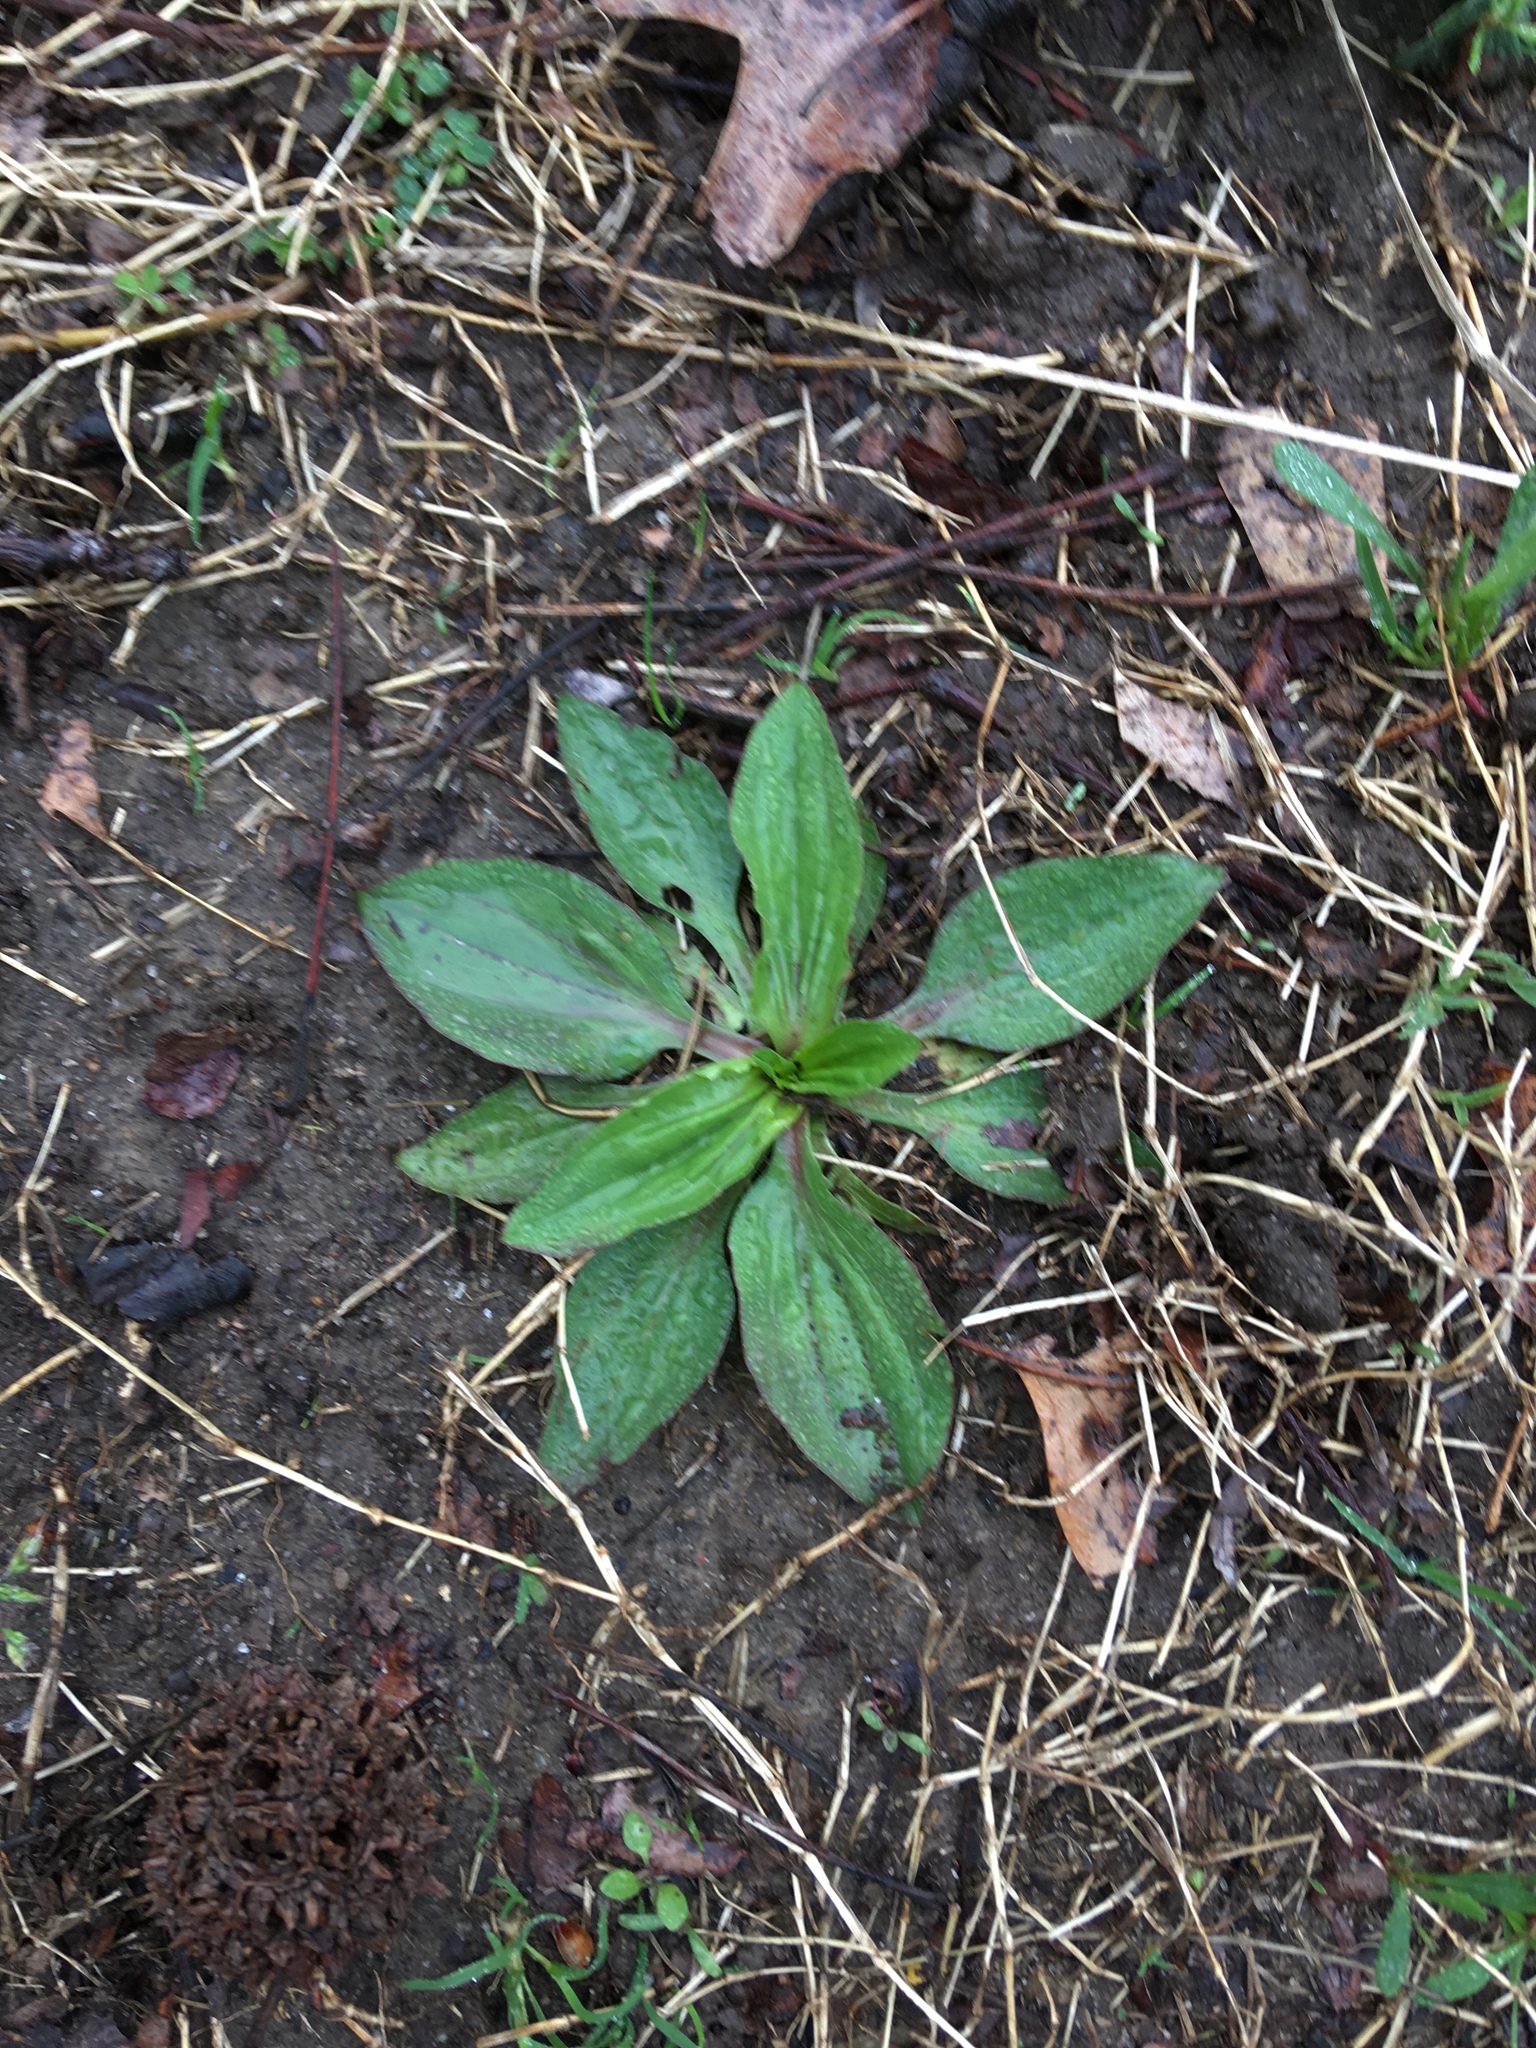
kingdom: Plantae
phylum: Tracheophyta
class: Magnoliopsida
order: Lamiales
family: Plantaginaceae
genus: Plantago
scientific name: Plantago rugelii
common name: American plantain
